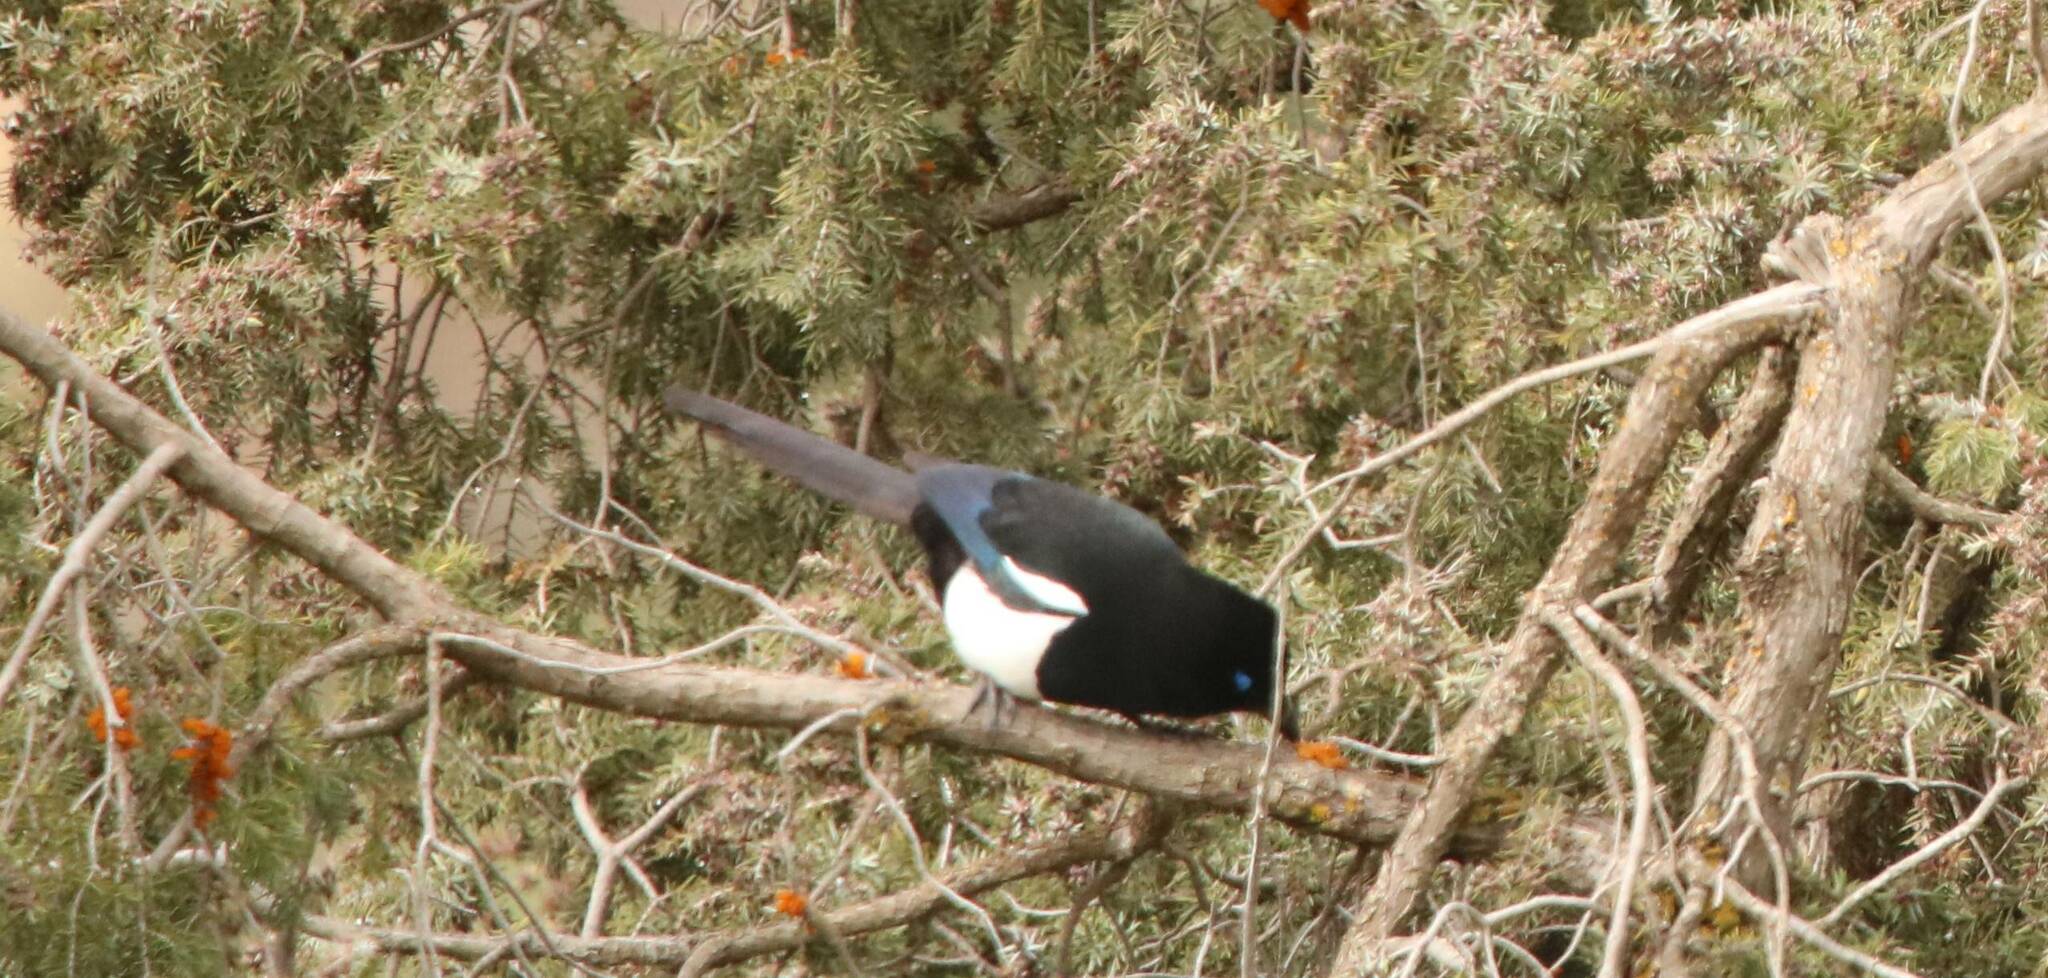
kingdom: Animalia
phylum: Chordata
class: Aves
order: Passeriformes
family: Corvidae
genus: Pica
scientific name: Pica mauritanica
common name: Maghreb magpie
